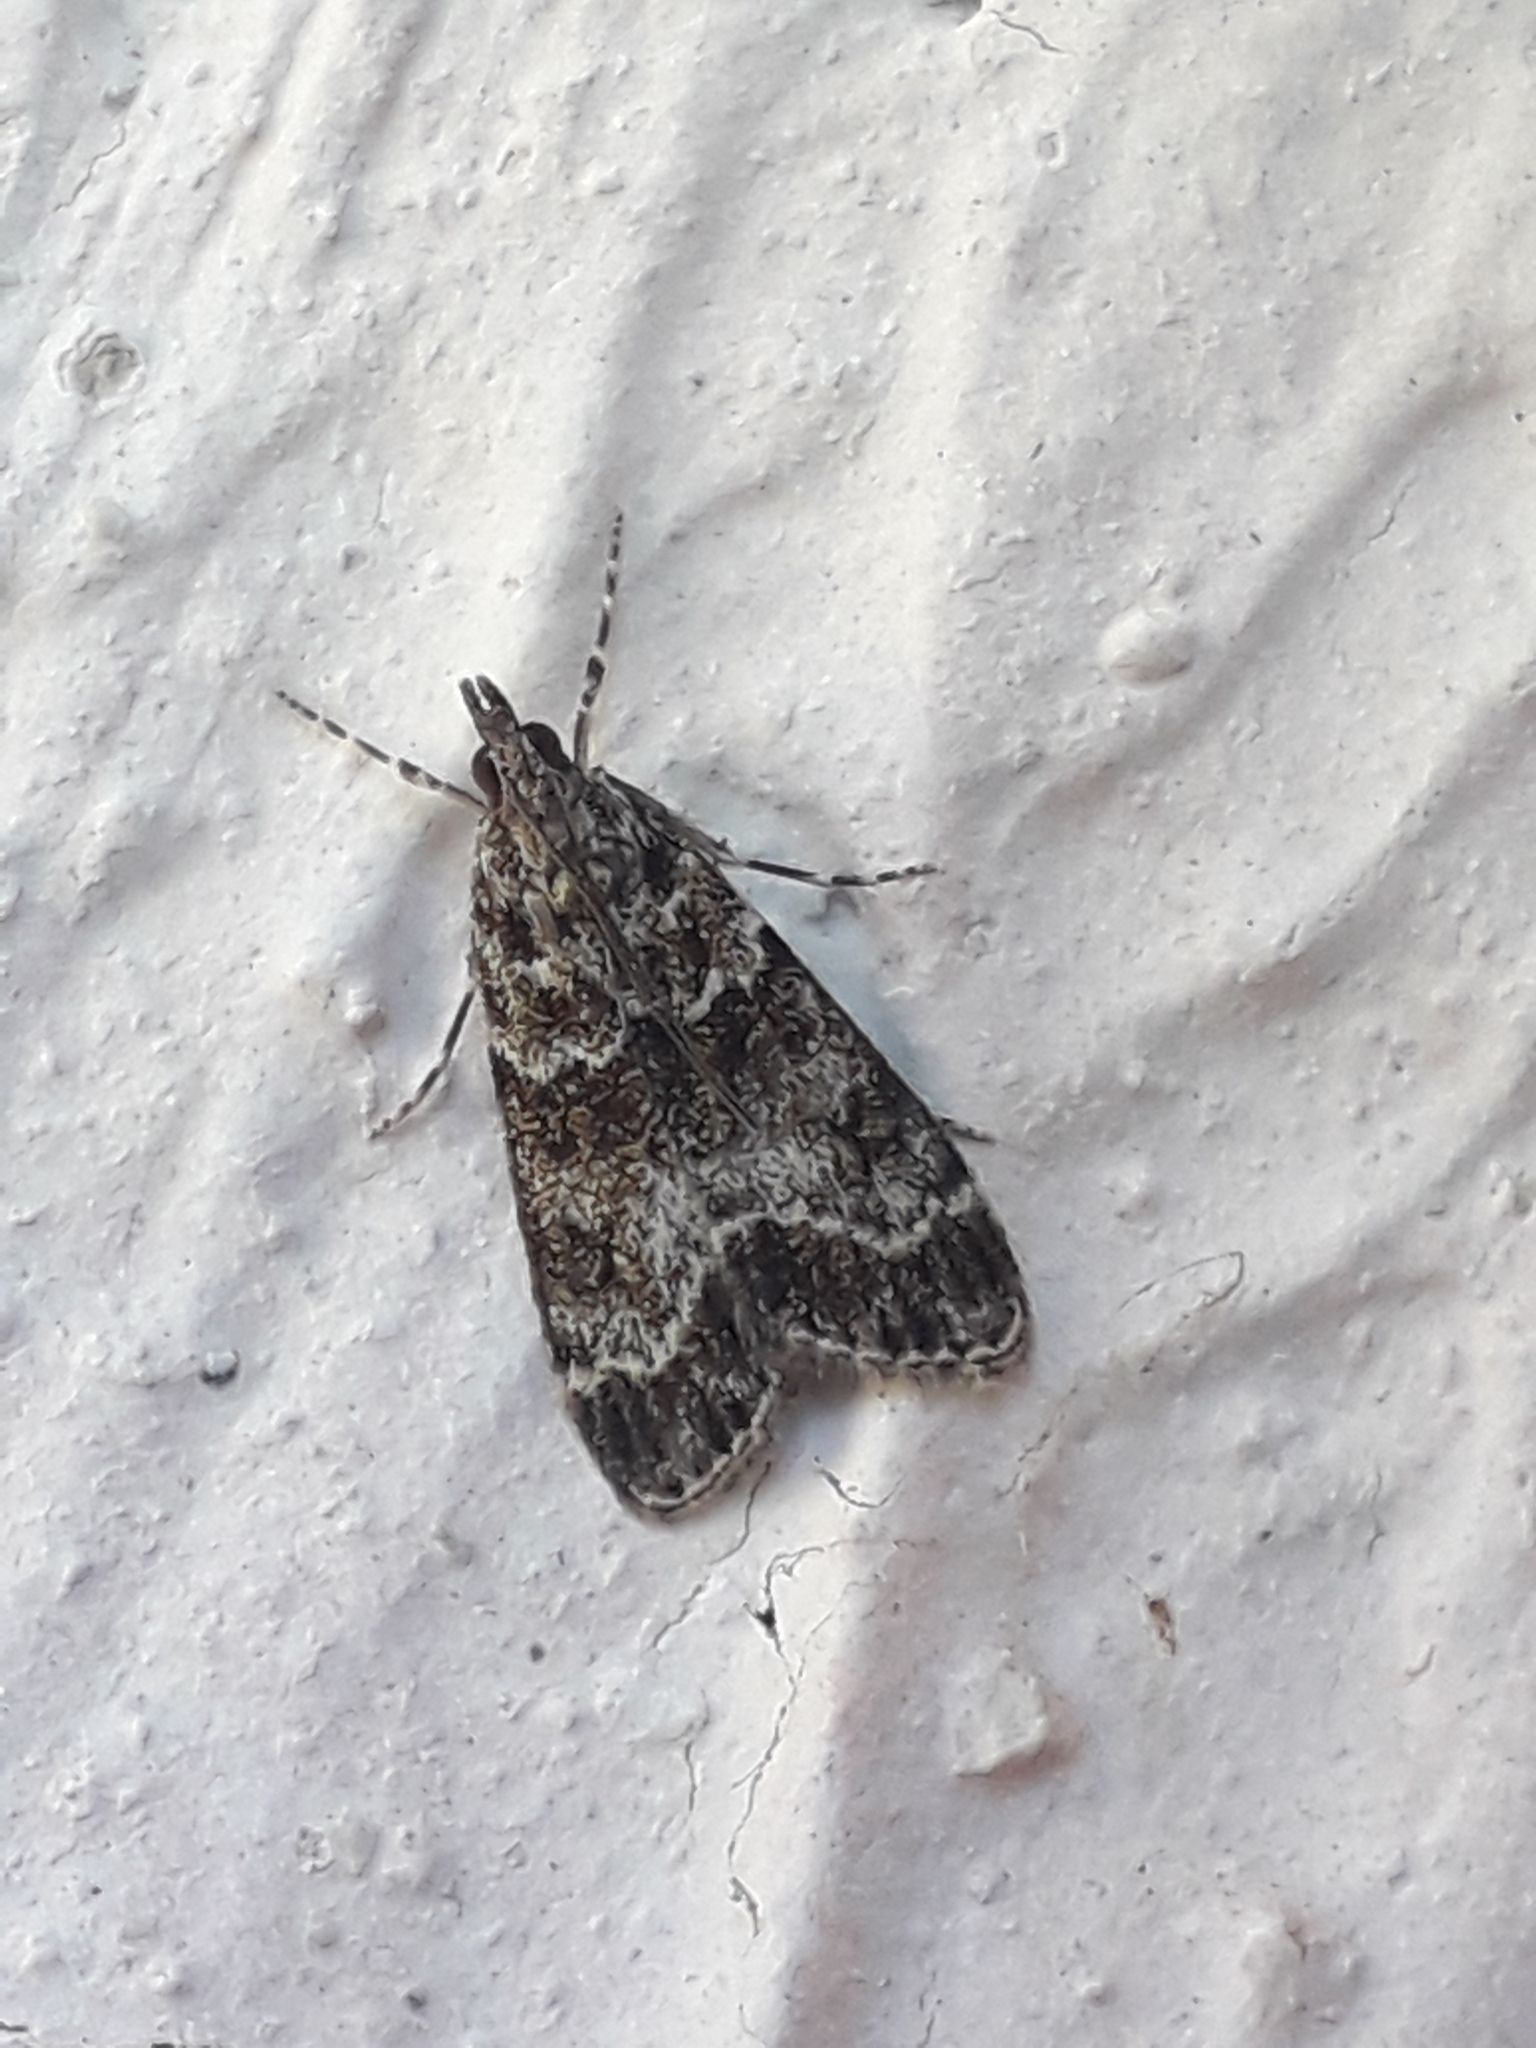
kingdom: Animalia
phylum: Arthropoda
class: Insecta
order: Lepidoptera
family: Crambidae
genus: Eudonia
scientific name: Eudonia mercurella
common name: Small grey
